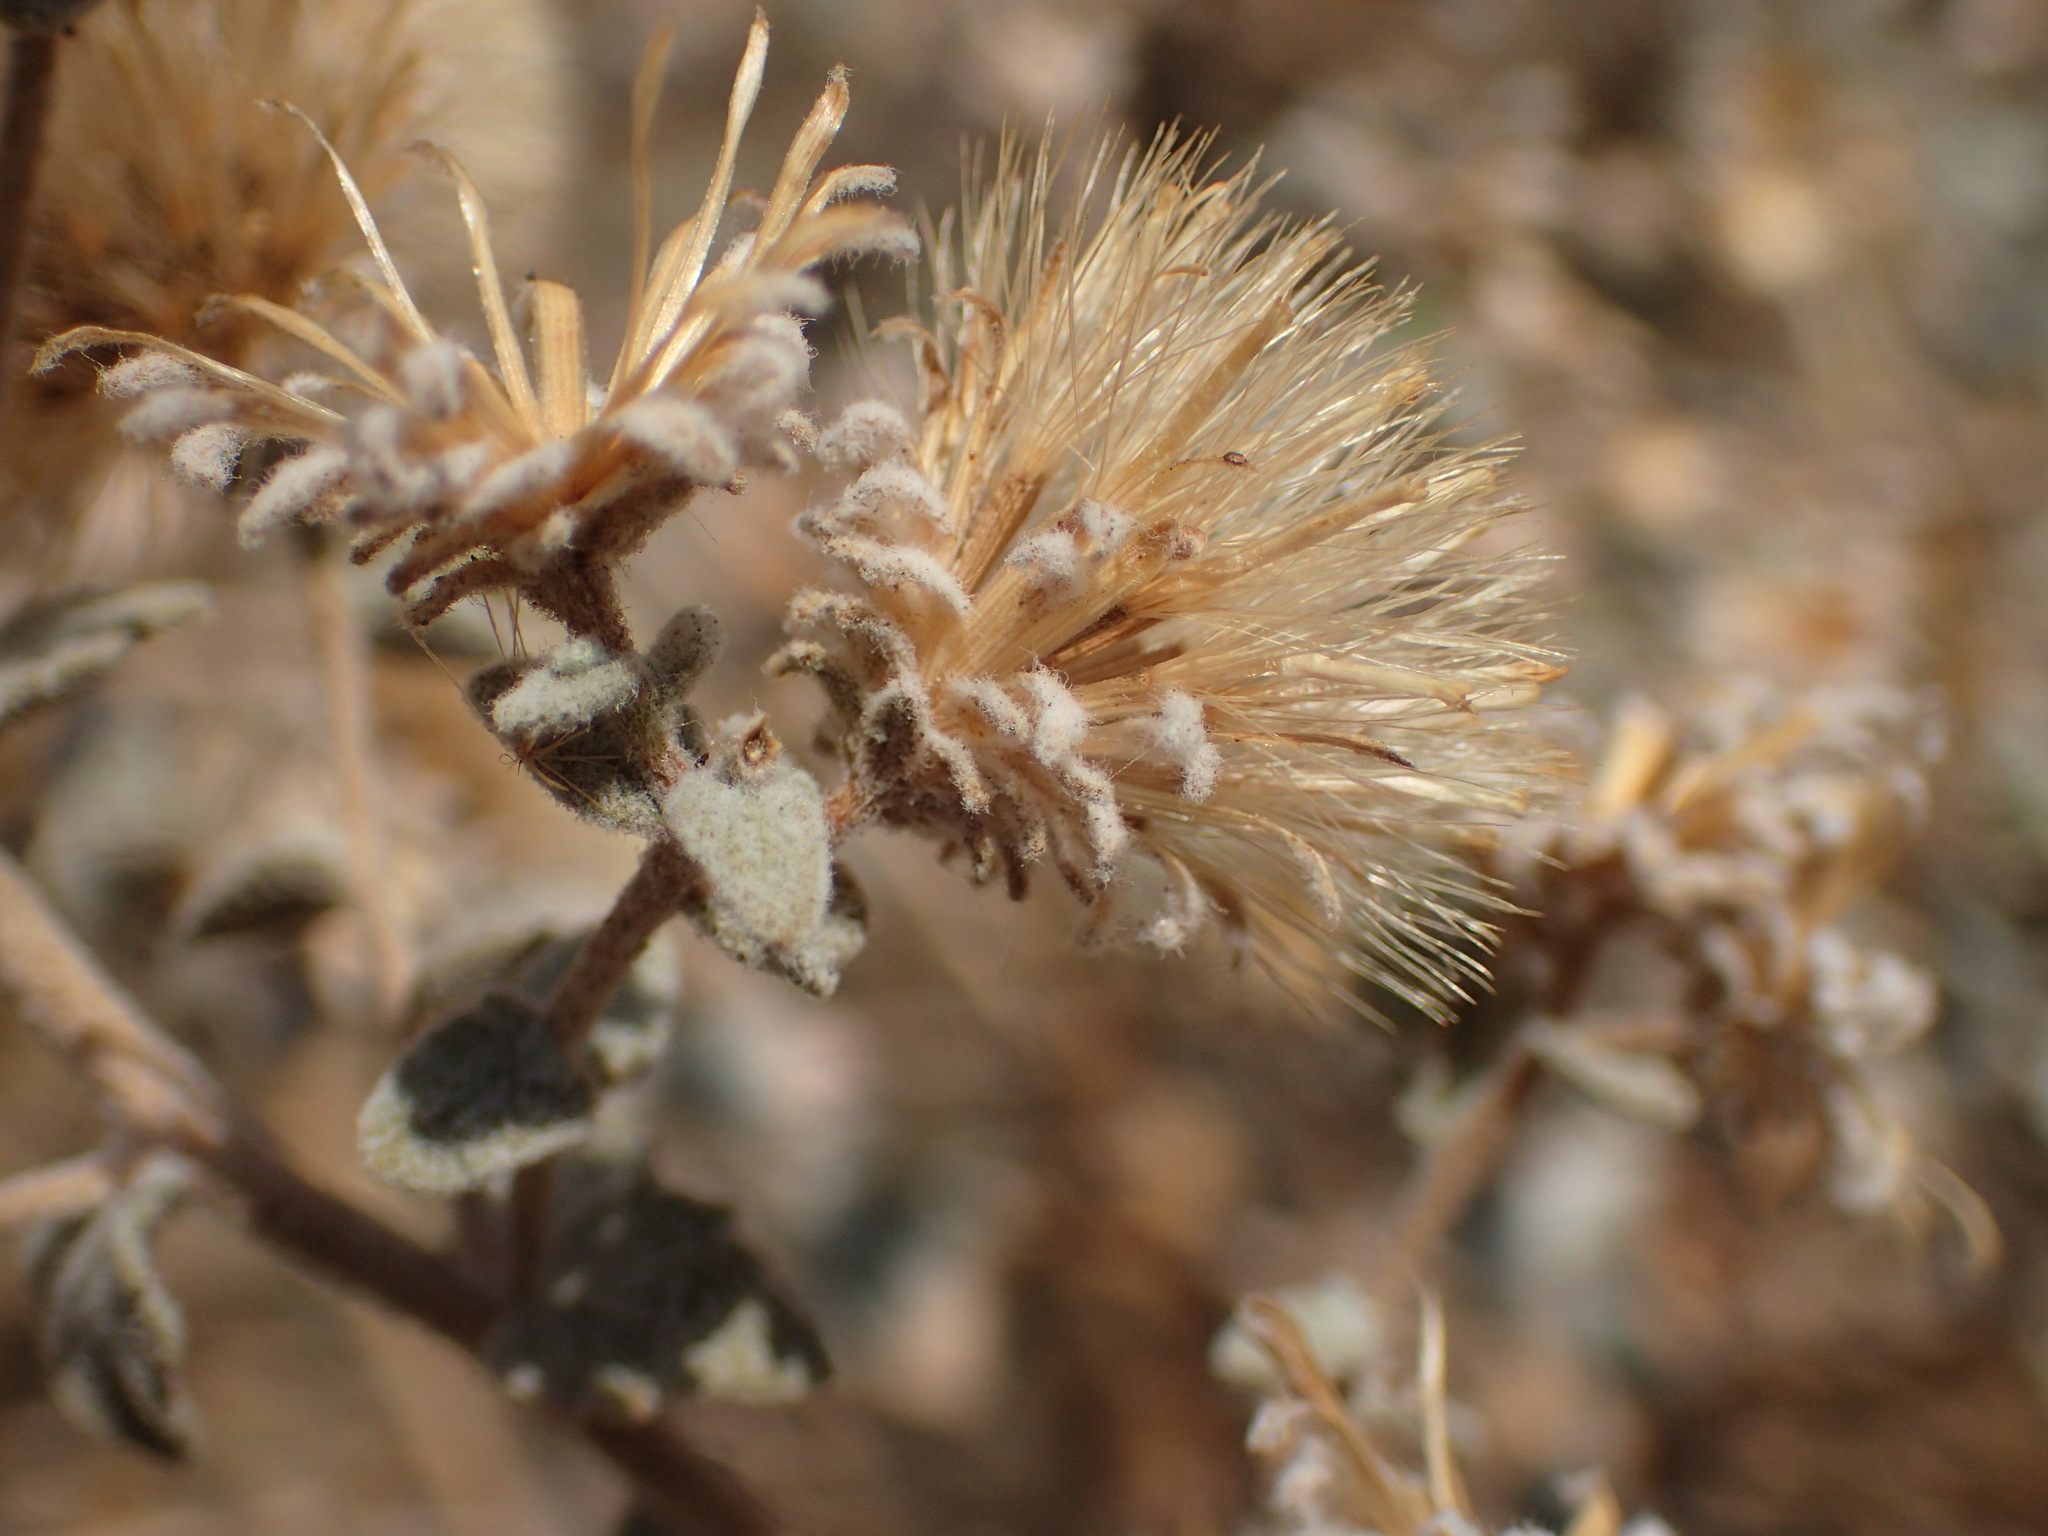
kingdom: Plantae
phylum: Tracheophyta
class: Magnoliopsida
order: Asterales
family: Asteraceae
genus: Brickellia
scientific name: Brickellia nevinii
